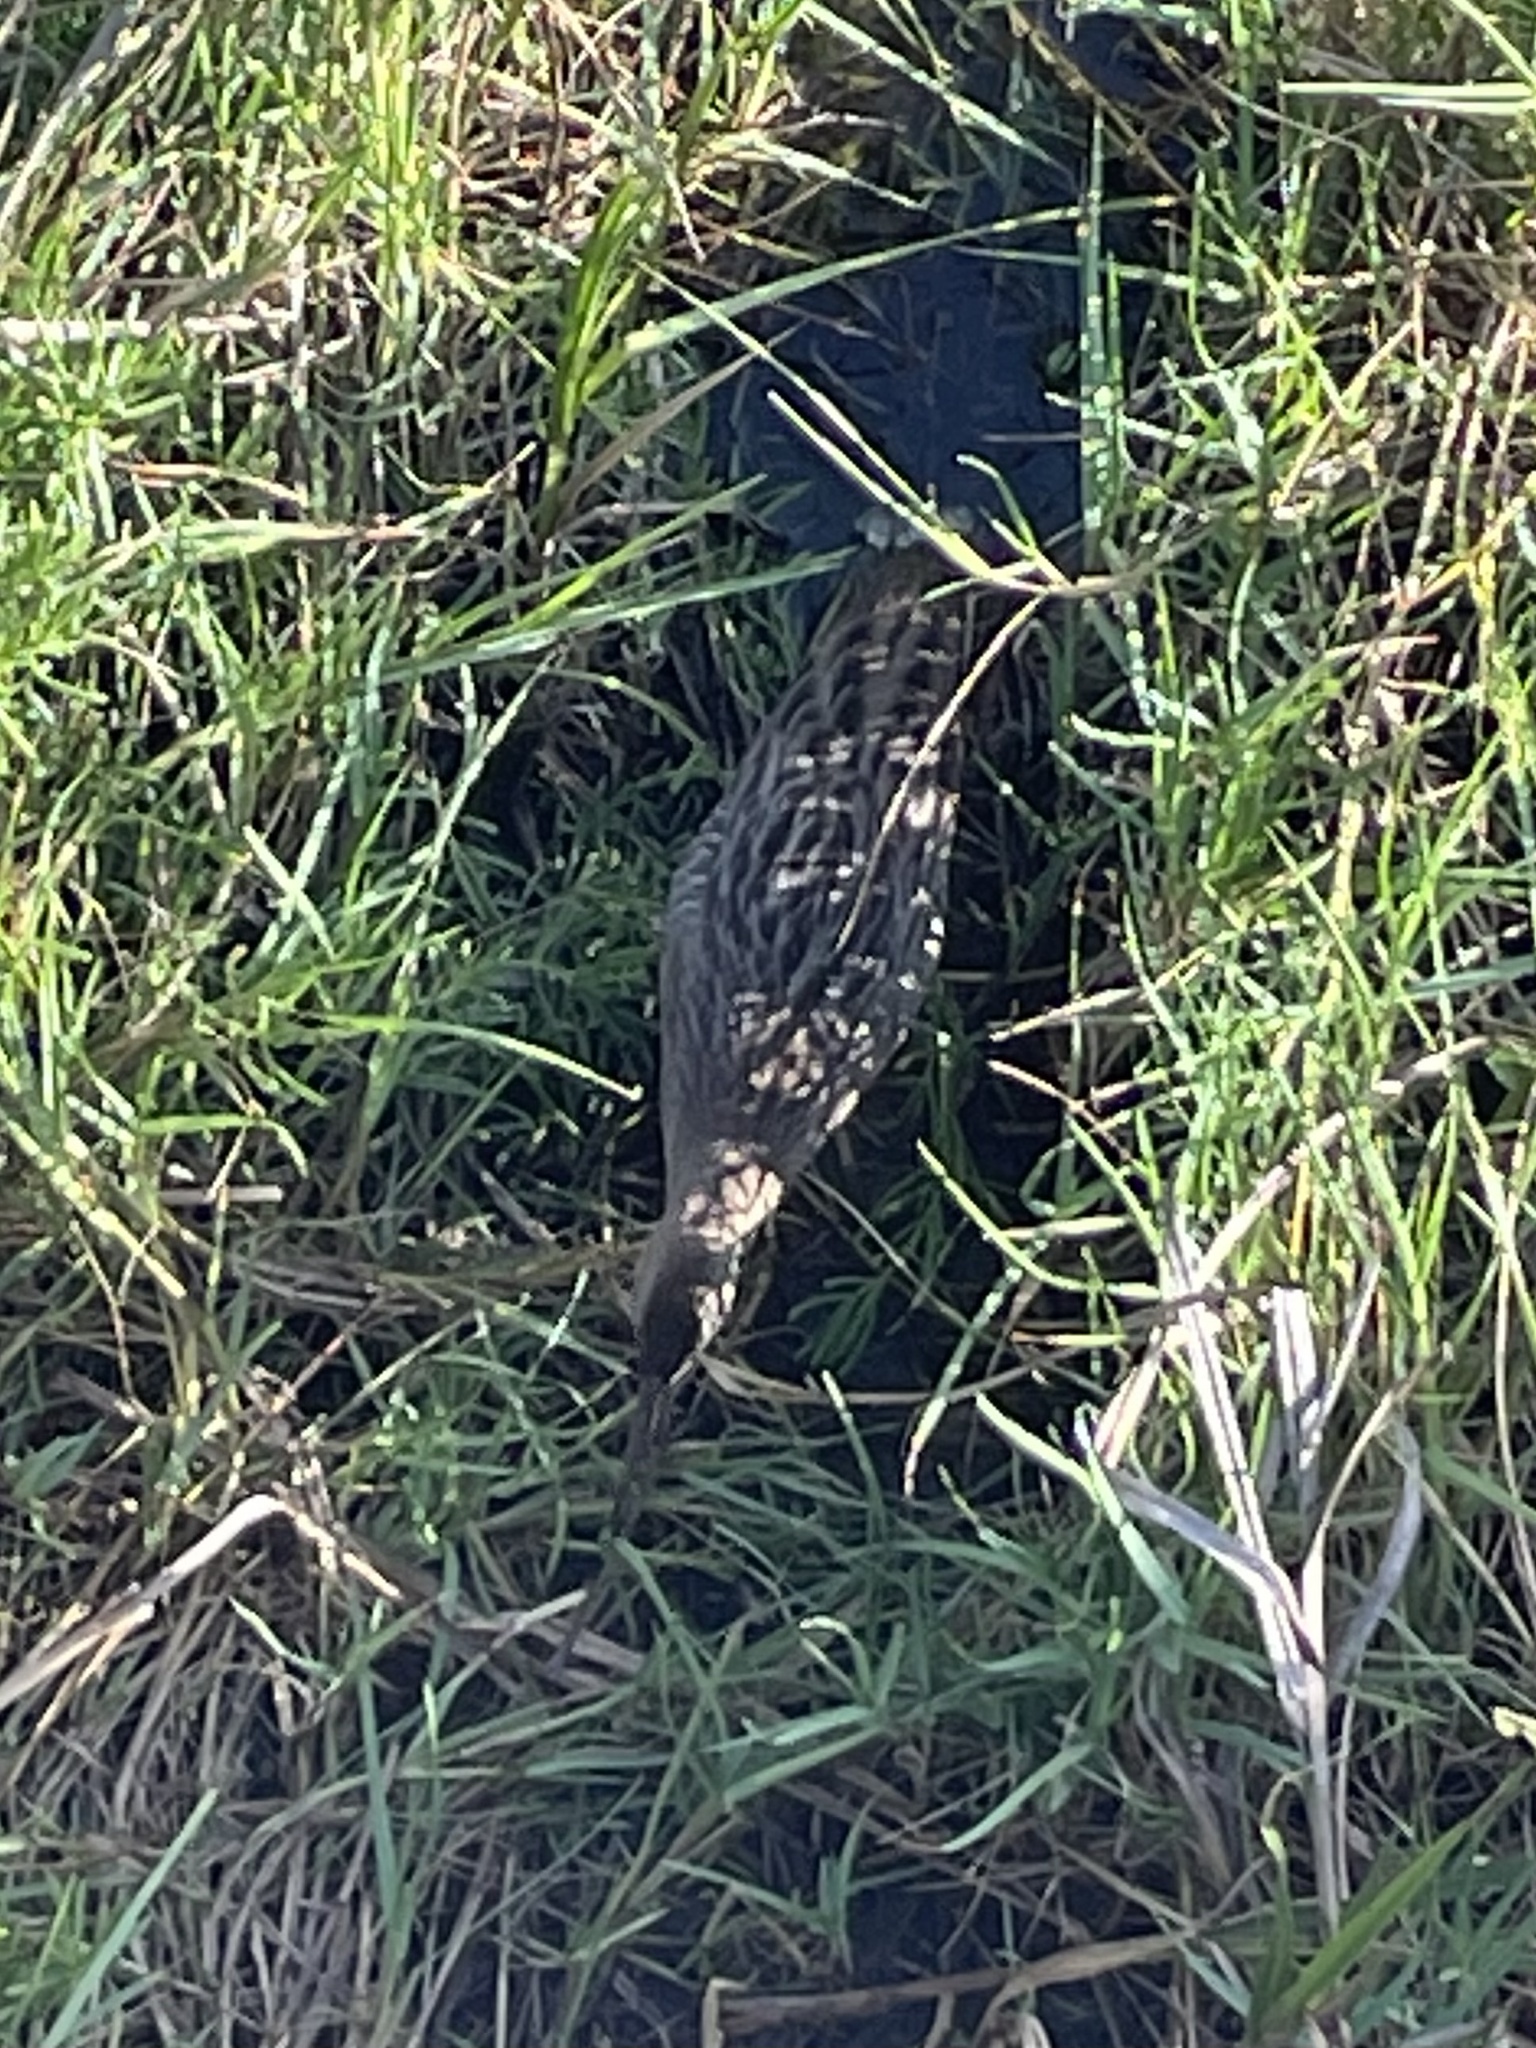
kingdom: Animalia
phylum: Chordata
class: Aves
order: Gruiformes
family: Rallidae
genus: Rallus
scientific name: Rallus crepitans
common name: Clapper rail
